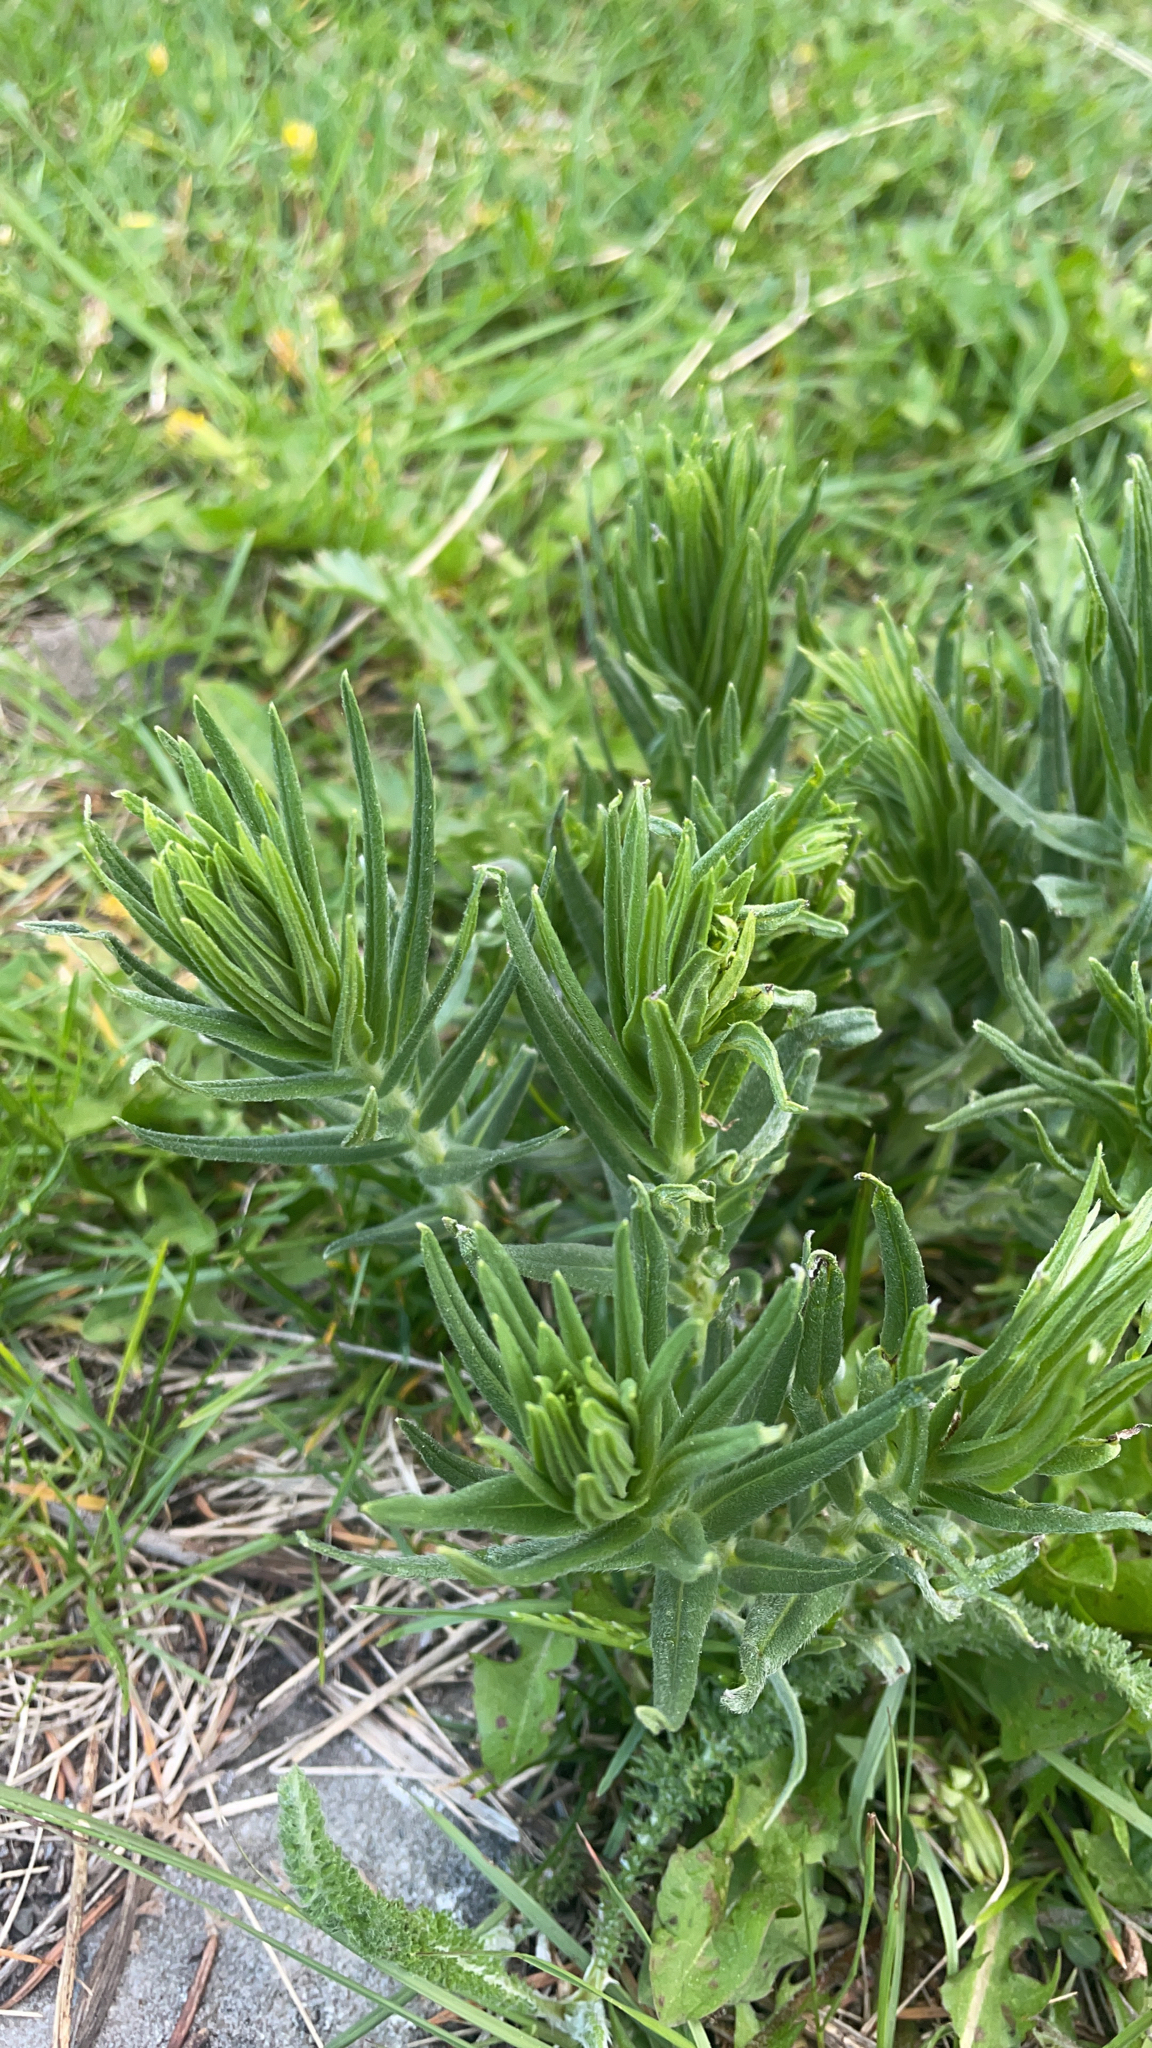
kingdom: Plantae
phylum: Tracheophyta
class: Magnoliopsida
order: Boraginales
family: Boraginaceae
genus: Lithospermum
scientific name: Lithospermum ruderale
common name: Western gromwell
